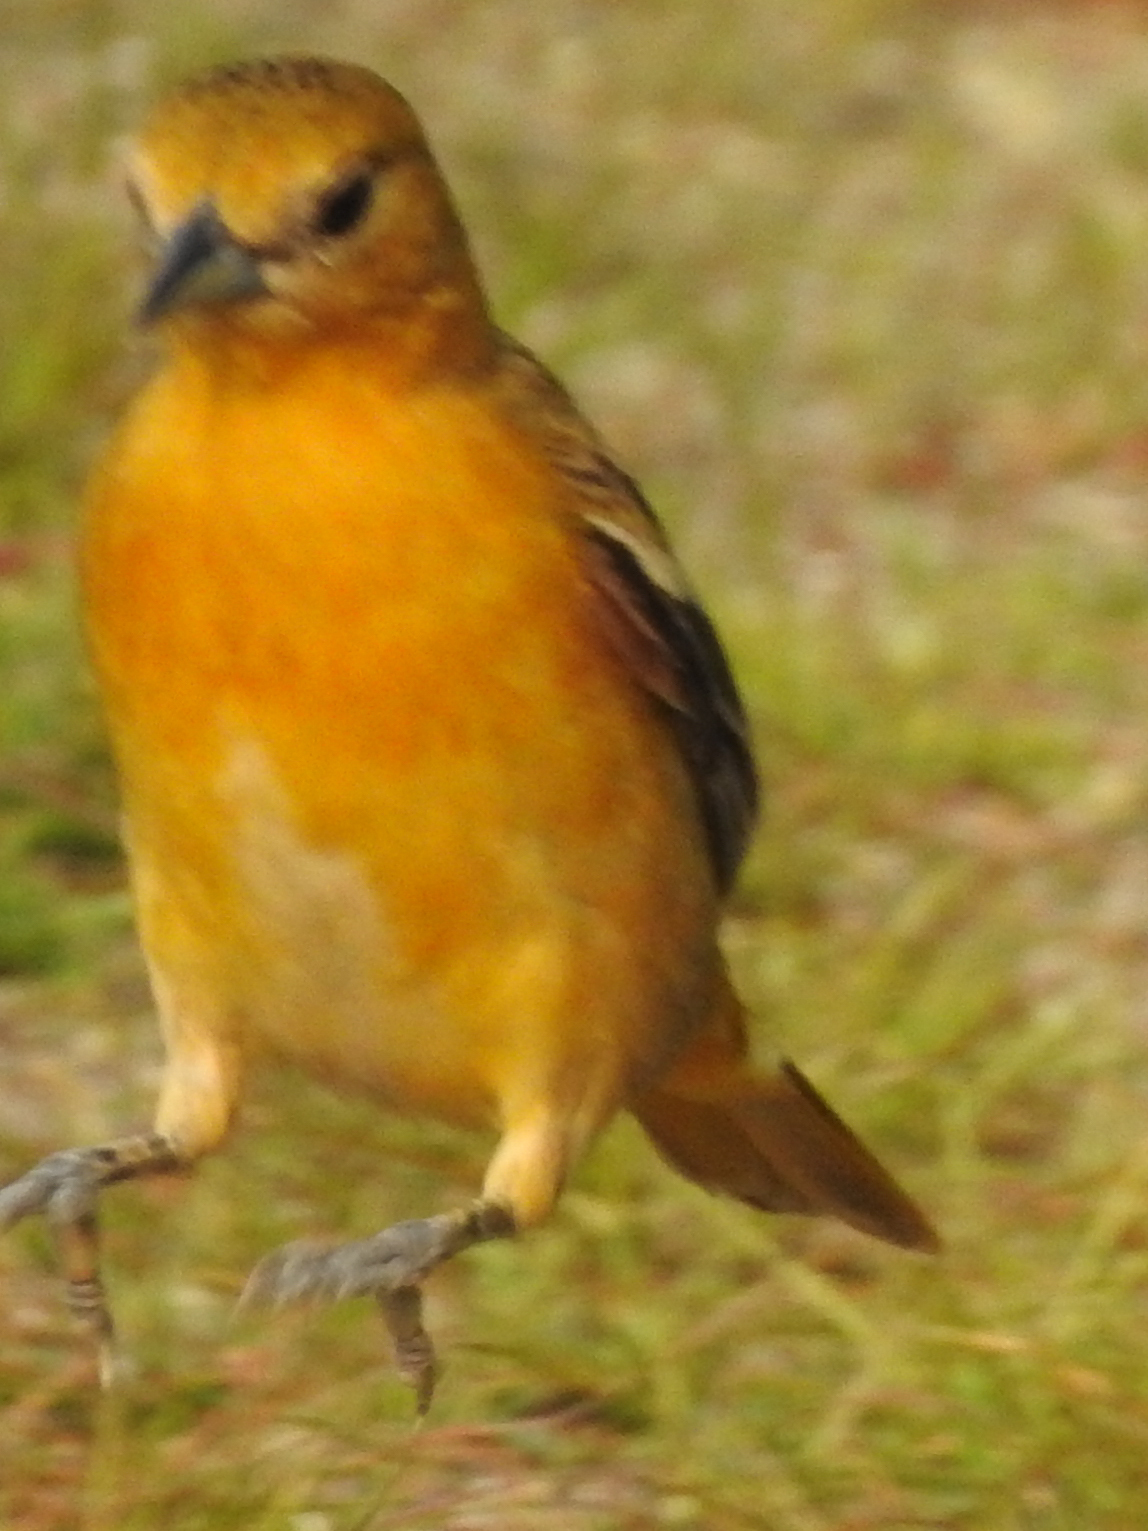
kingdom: Animalia
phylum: Chordata
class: Aves
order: Passeriformes
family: Icteridae
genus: Icterus
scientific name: Icterus galbula
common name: Baltimore oriole
